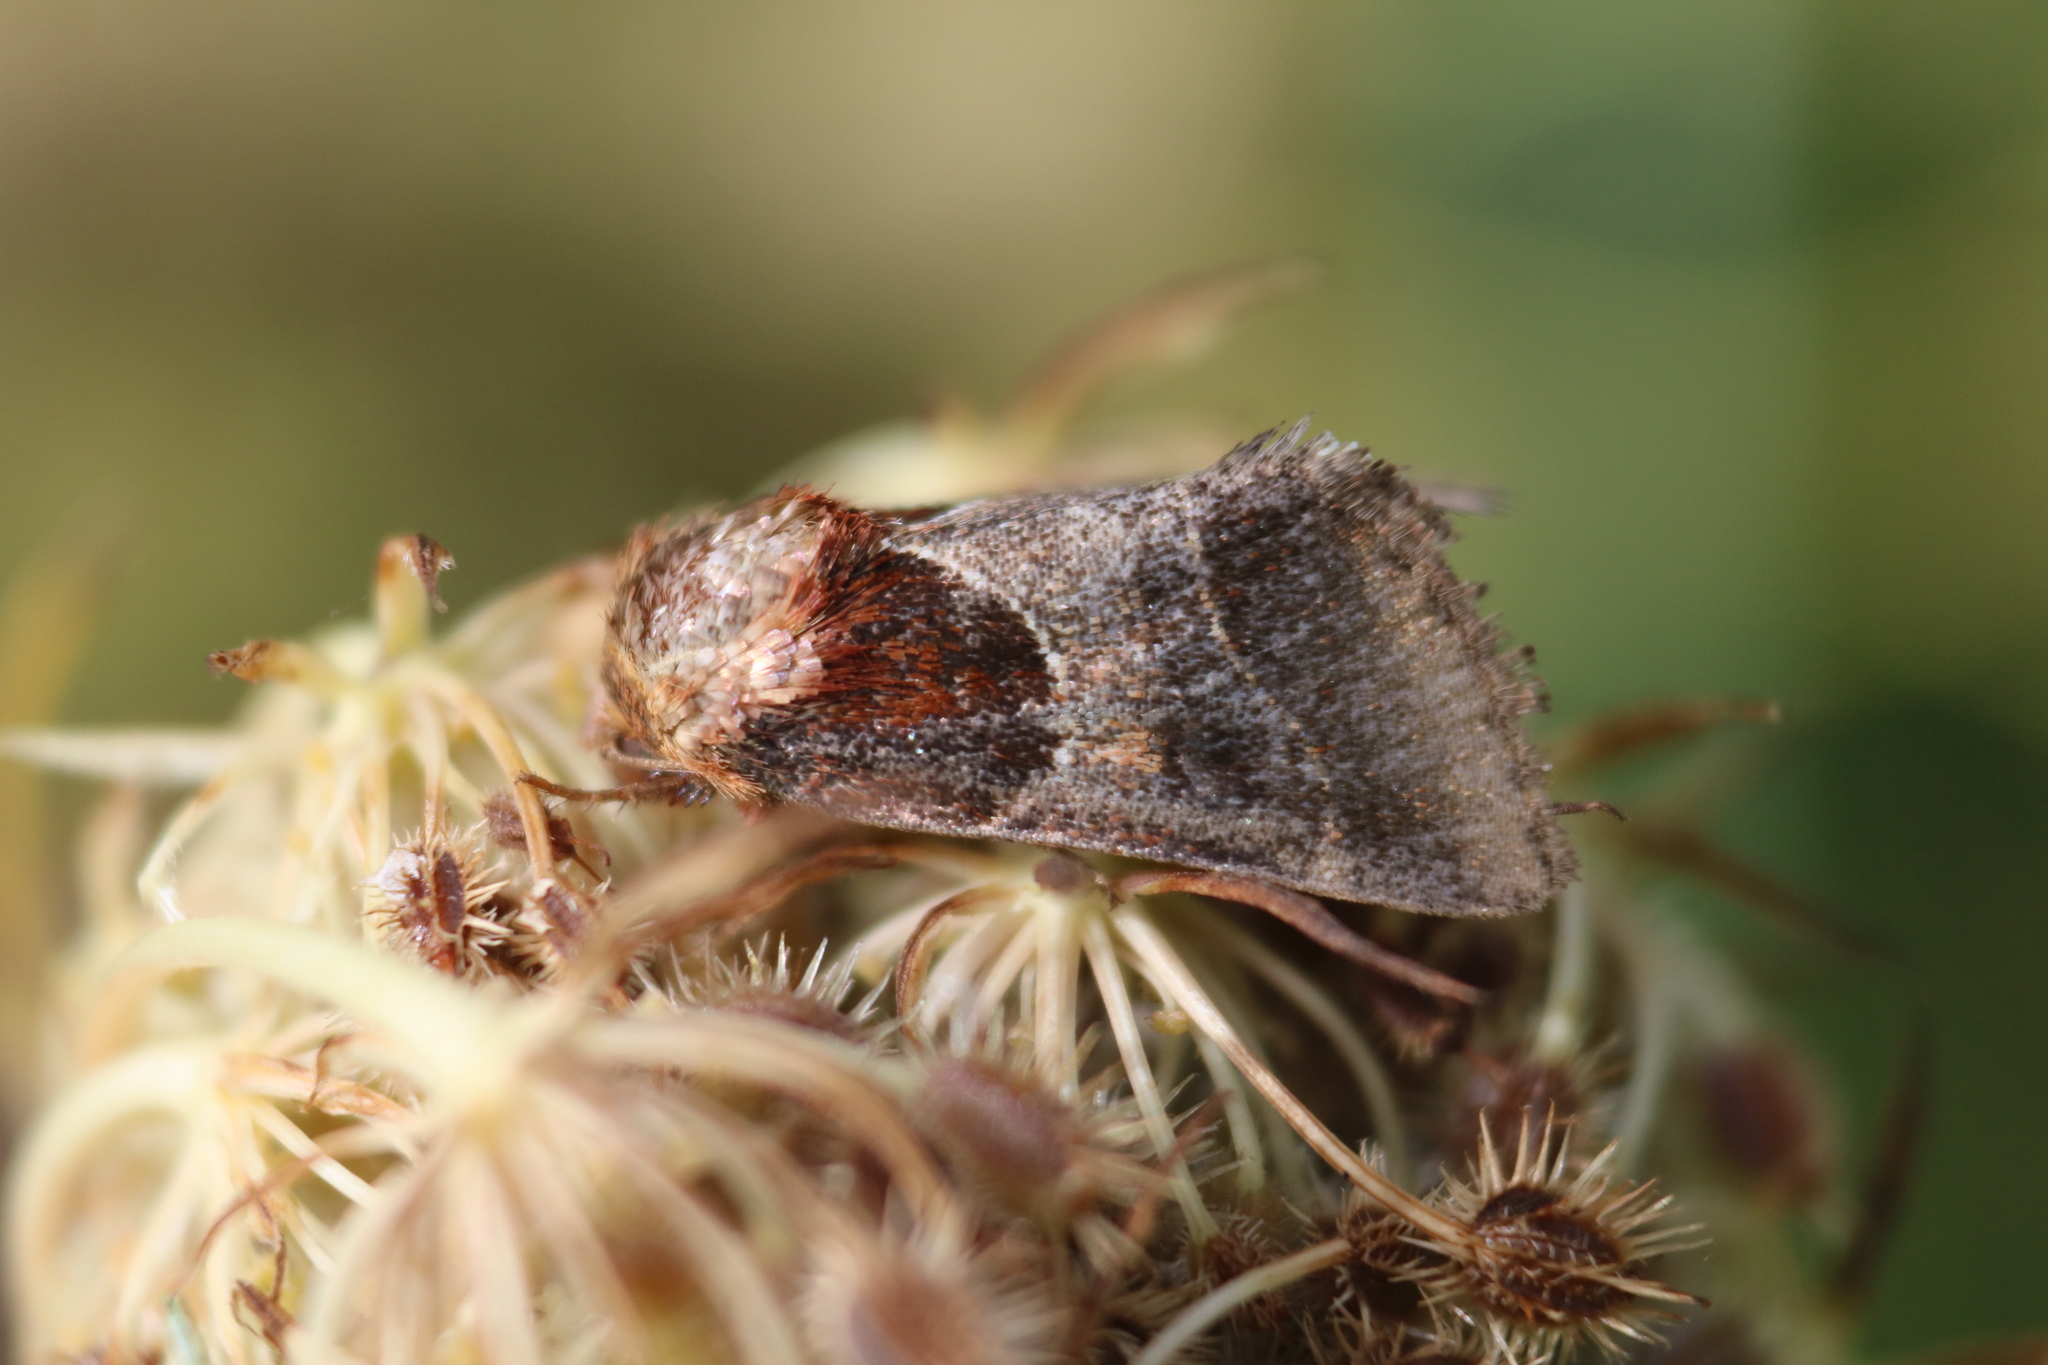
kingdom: Animalia
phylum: Arthropoda
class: Insecta
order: Lepidoptera
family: Noctuidae
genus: Schinia
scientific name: Schinia arcigera
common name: Arcigera flower moth
